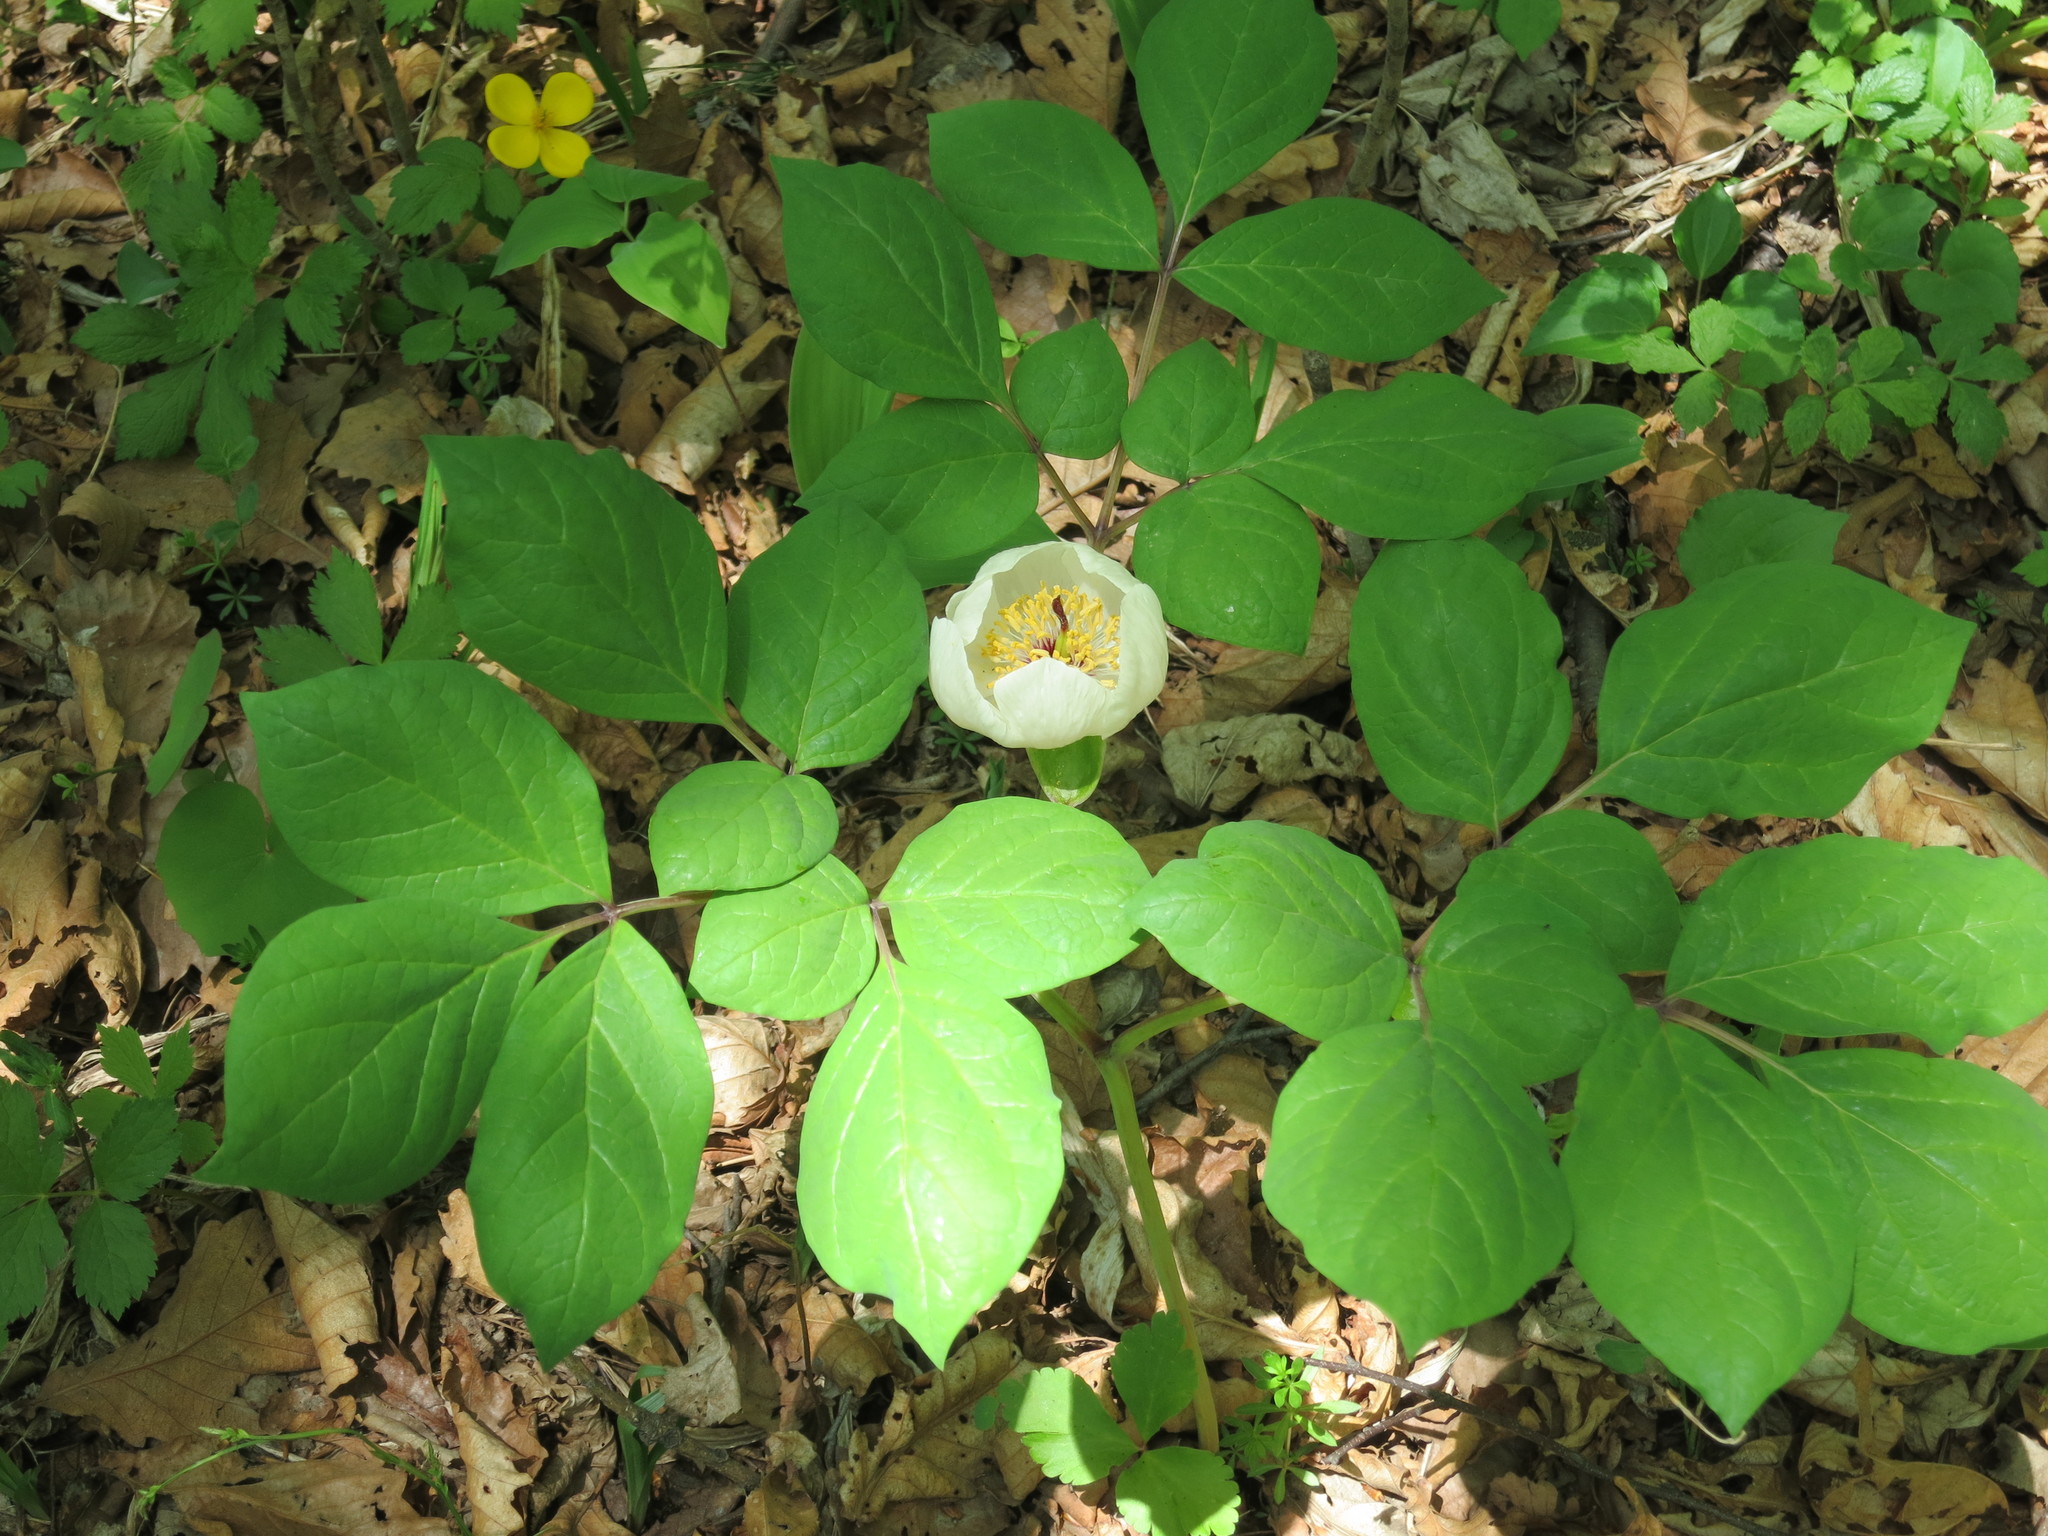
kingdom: Plantae
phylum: Tracheophyta
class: Magnoliopsida
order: Saxifragales
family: Paeoniaceae
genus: Paeonia
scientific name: Paeonia obovata
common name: Chinese peony
